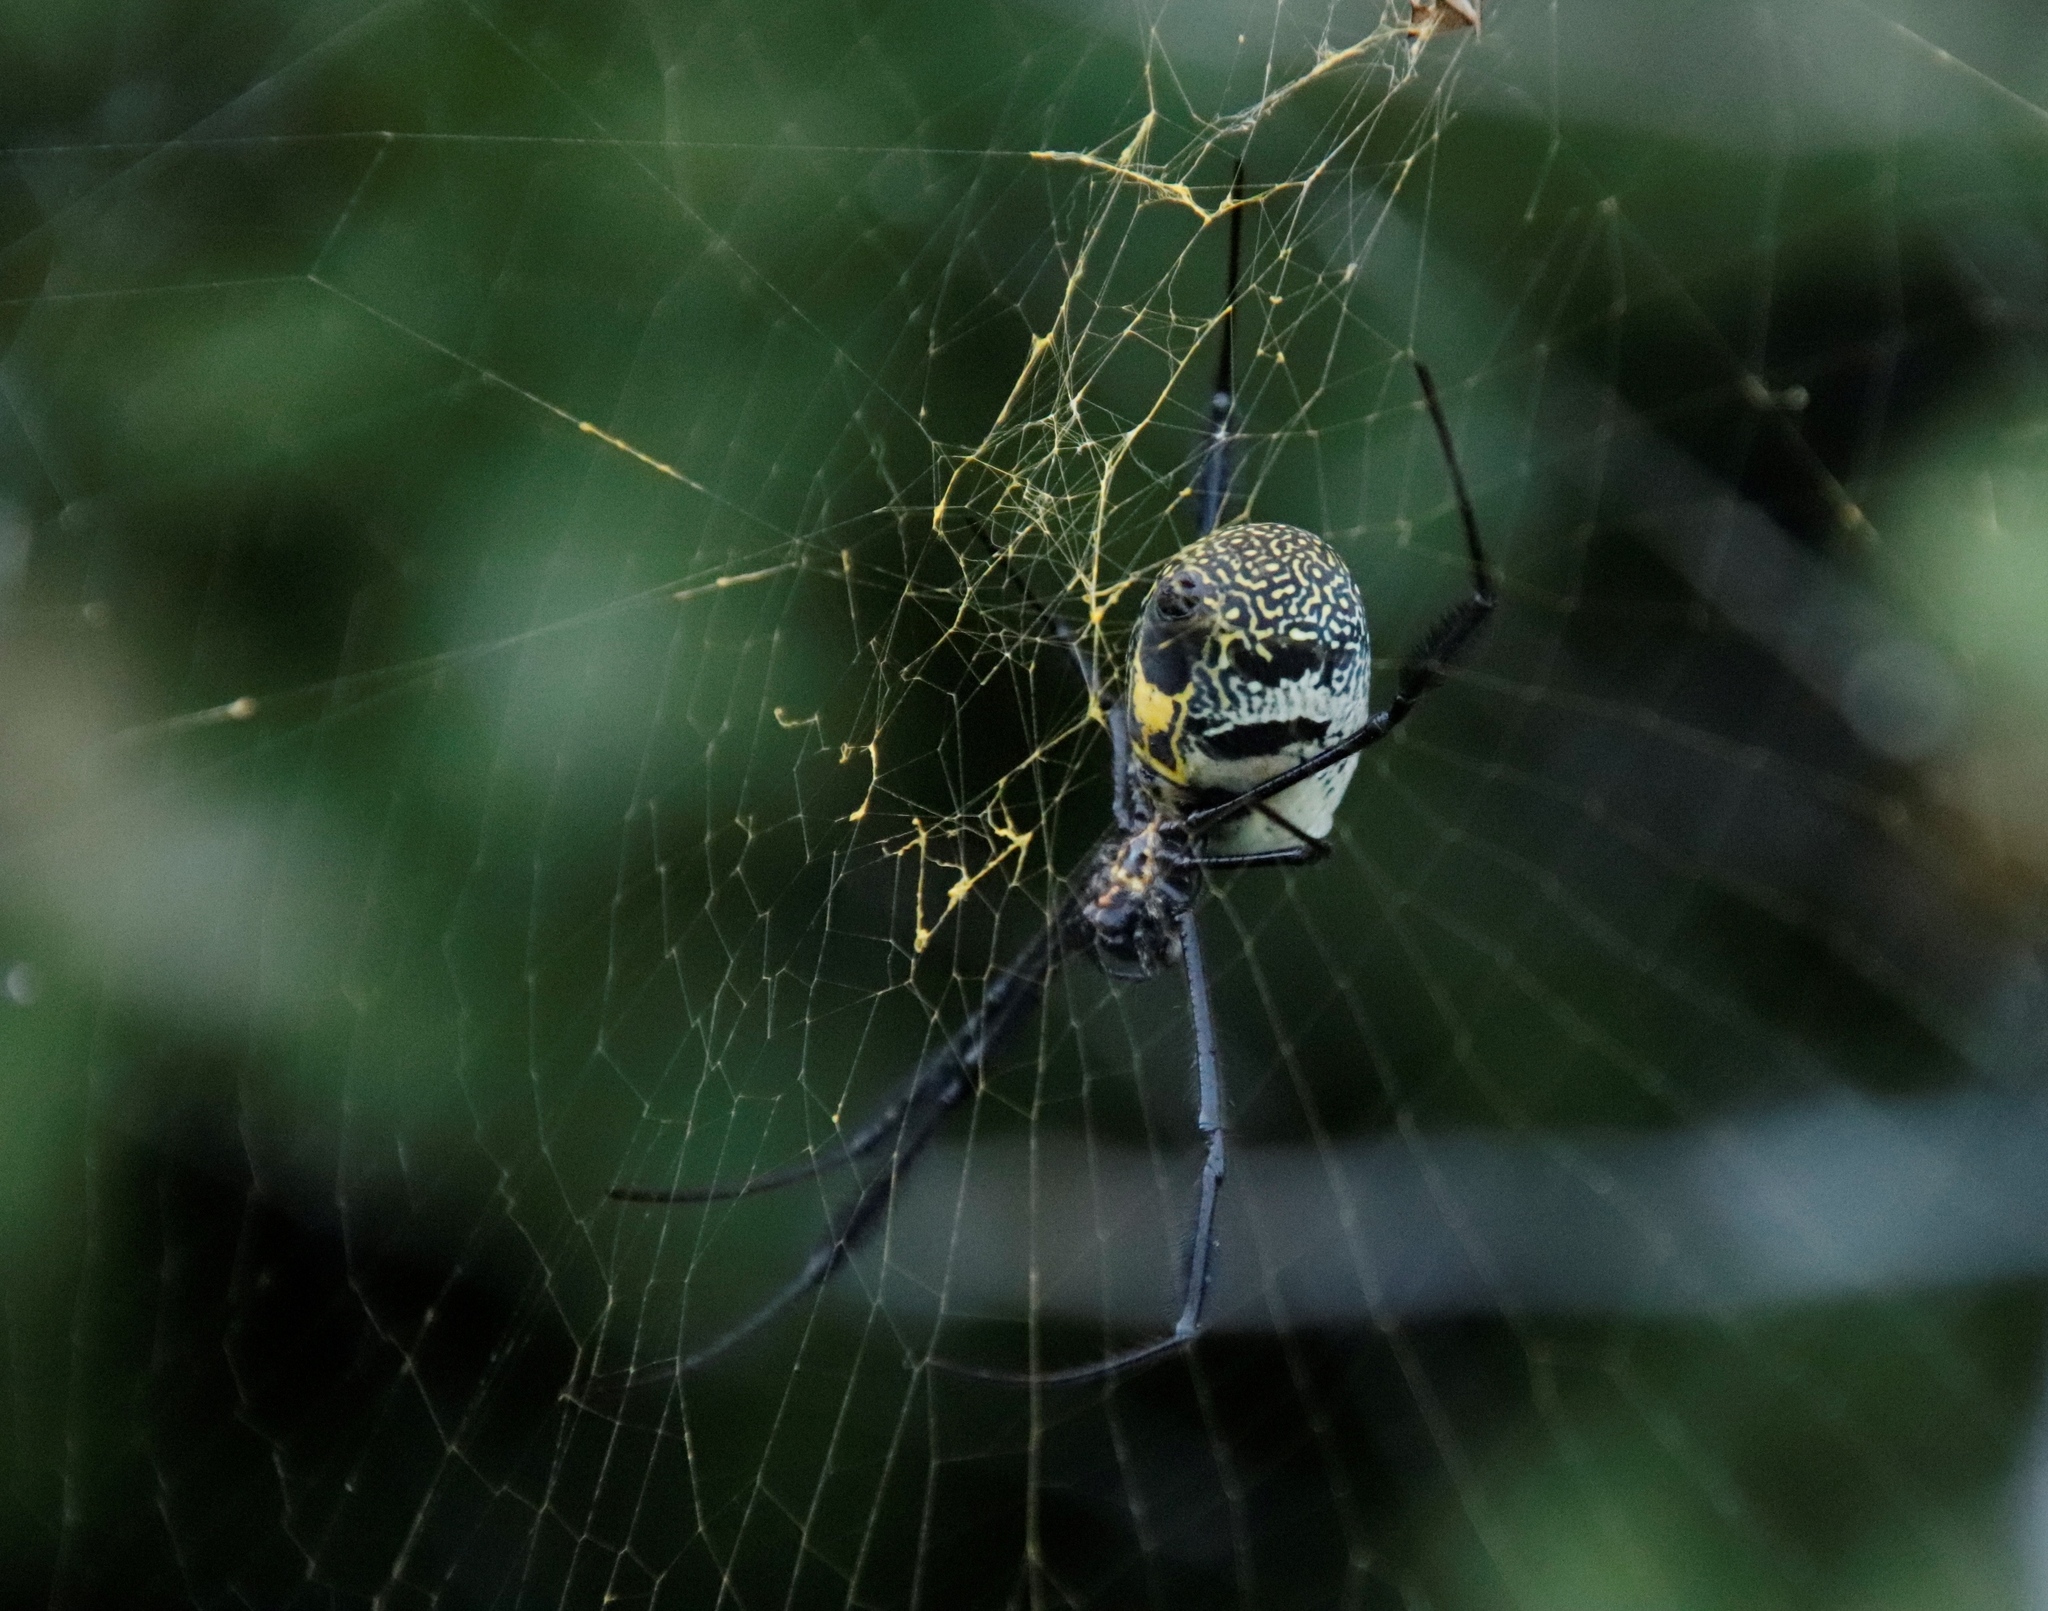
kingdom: Animalia
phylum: Arthropoda
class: Arachnida
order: Araneae
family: Araneidae
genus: Trichonephila
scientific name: Trichonephila fenestrata
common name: Hairy golden orb weaver
